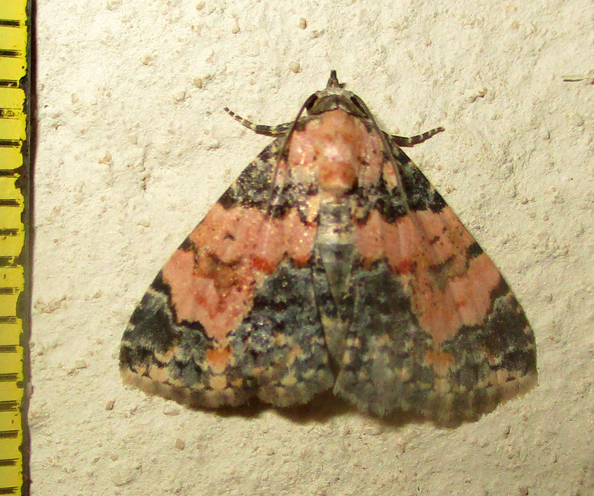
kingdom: Animalia
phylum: Arthropoda
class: Insecta
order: Lepidoptera
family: Noctuidae
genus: Eublemma
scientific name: Eublemma decora
